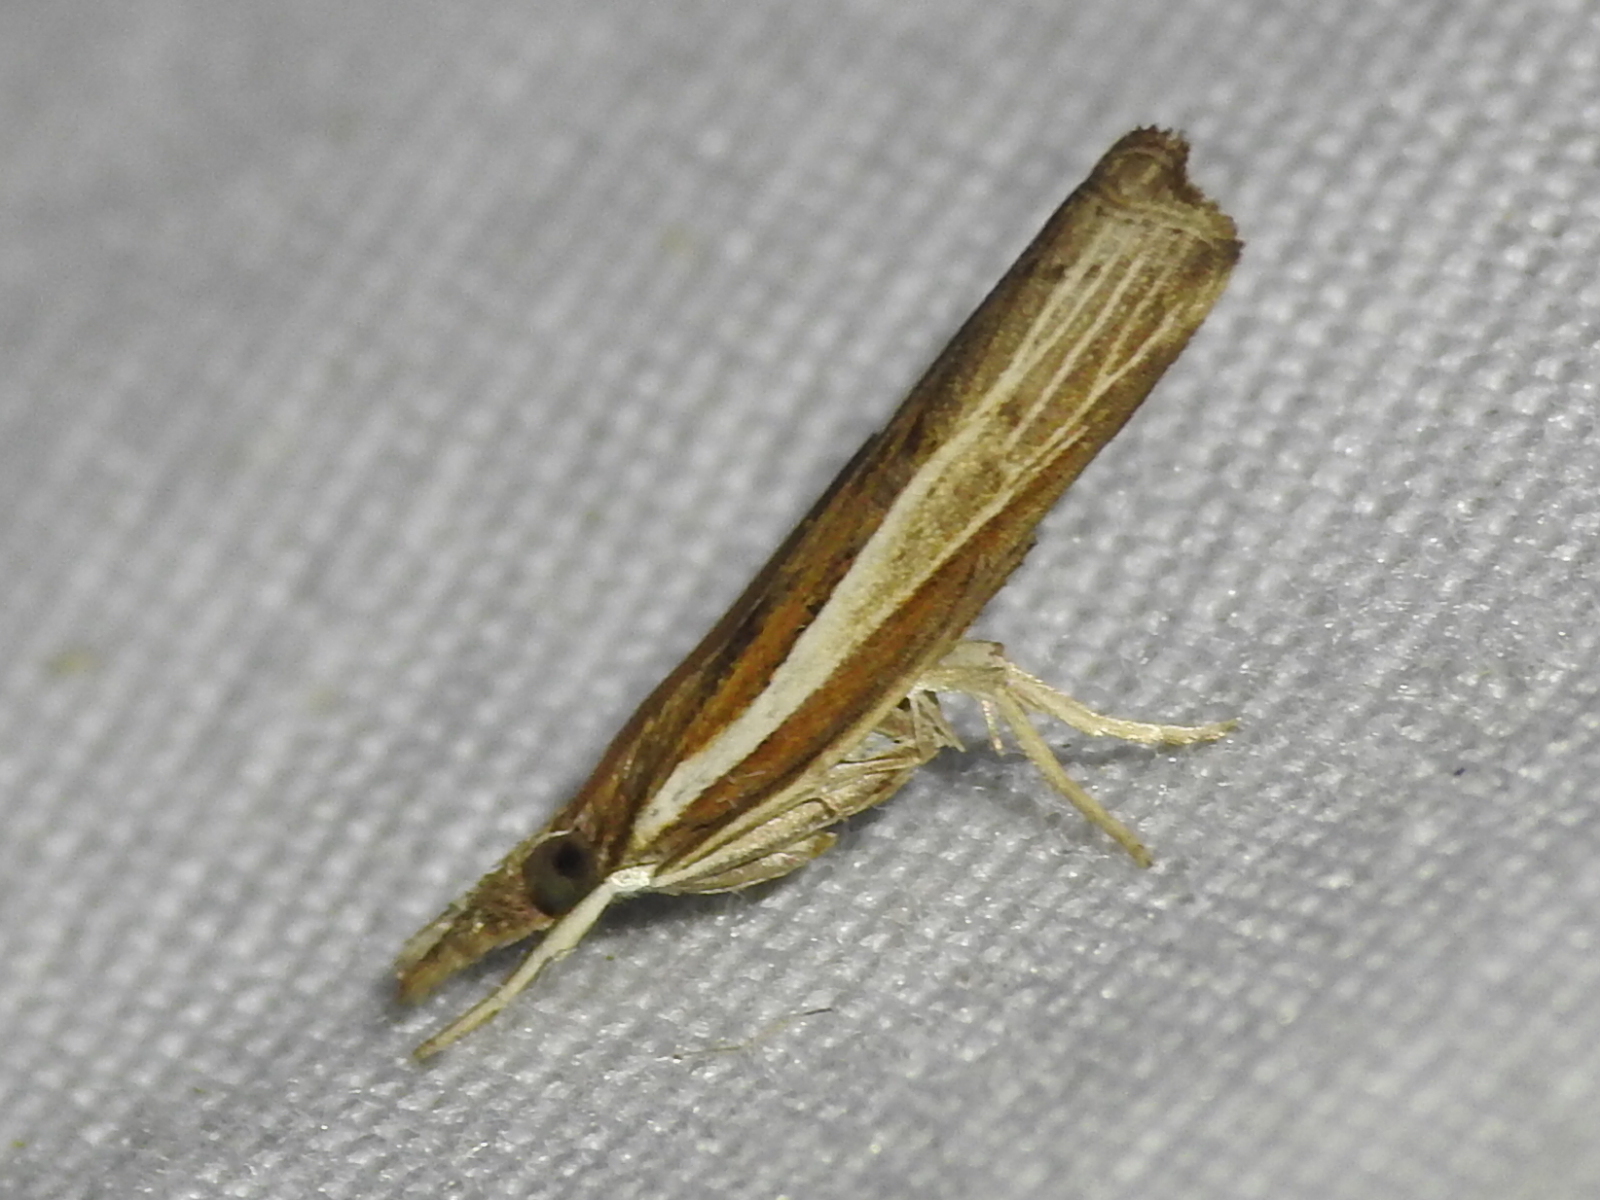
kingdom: Animalia
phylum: Arthropoda
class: Insecta
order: Lepidoptera
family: Crambidae
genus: Fissicrambus
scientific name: Fissicrambus fissiradiellus
